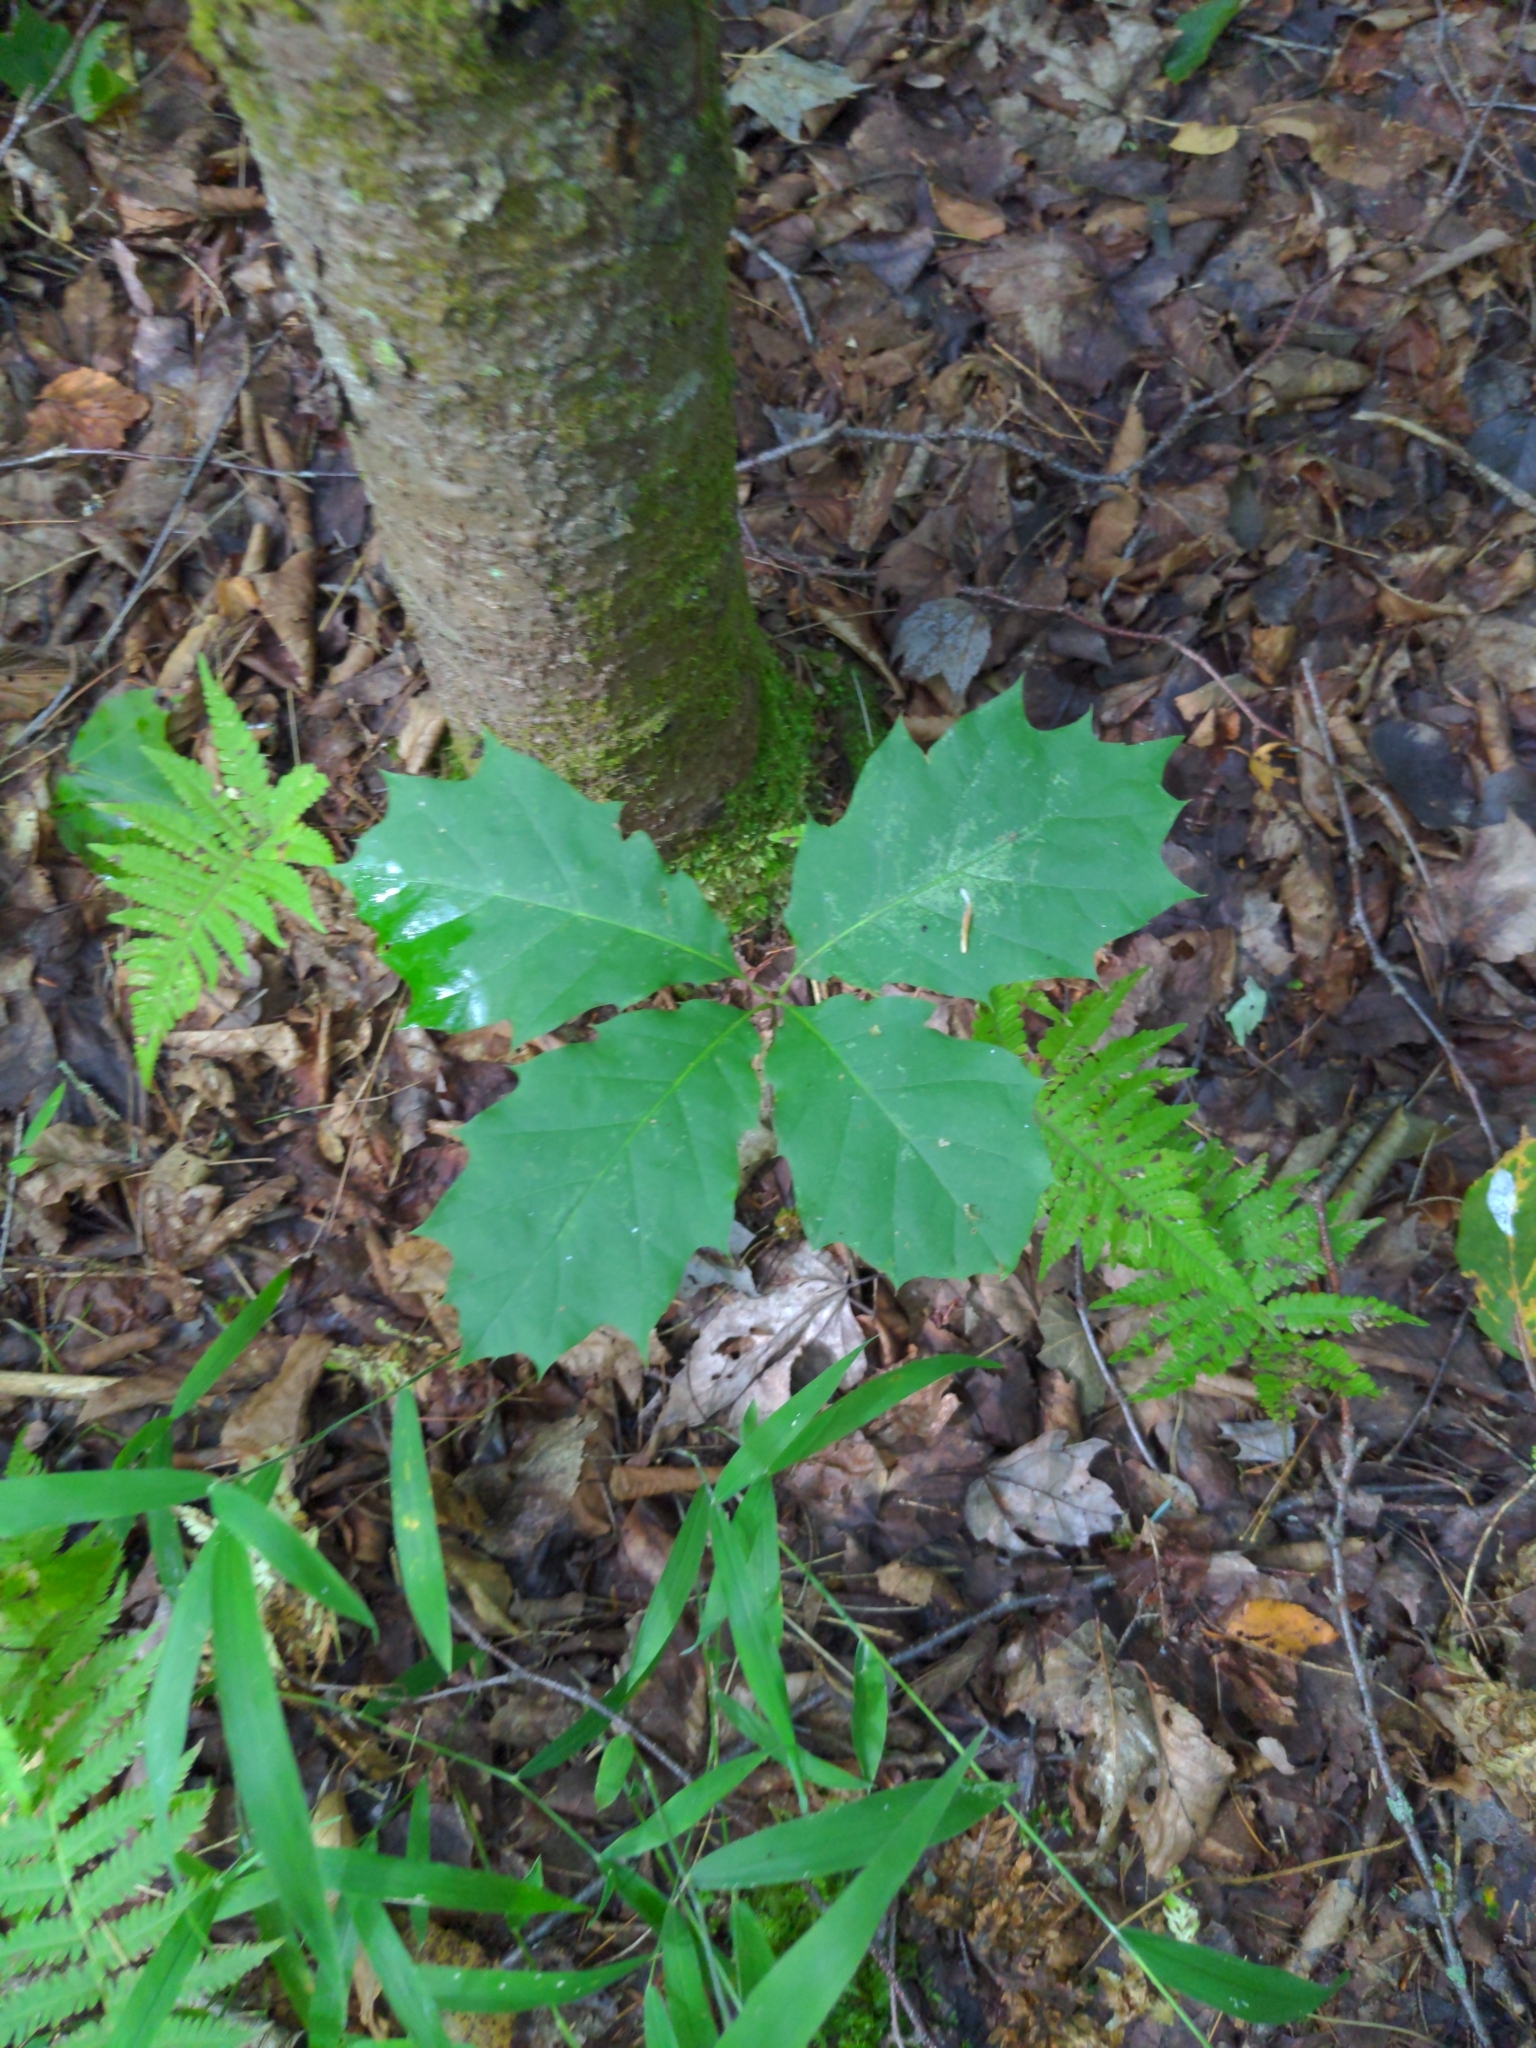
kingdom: Plantae
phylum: Tracheophyta
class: Magnoliopsida
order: Fagales
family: Fagaceae
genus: Quercus
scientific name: Quercus rubra
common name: Red oak
